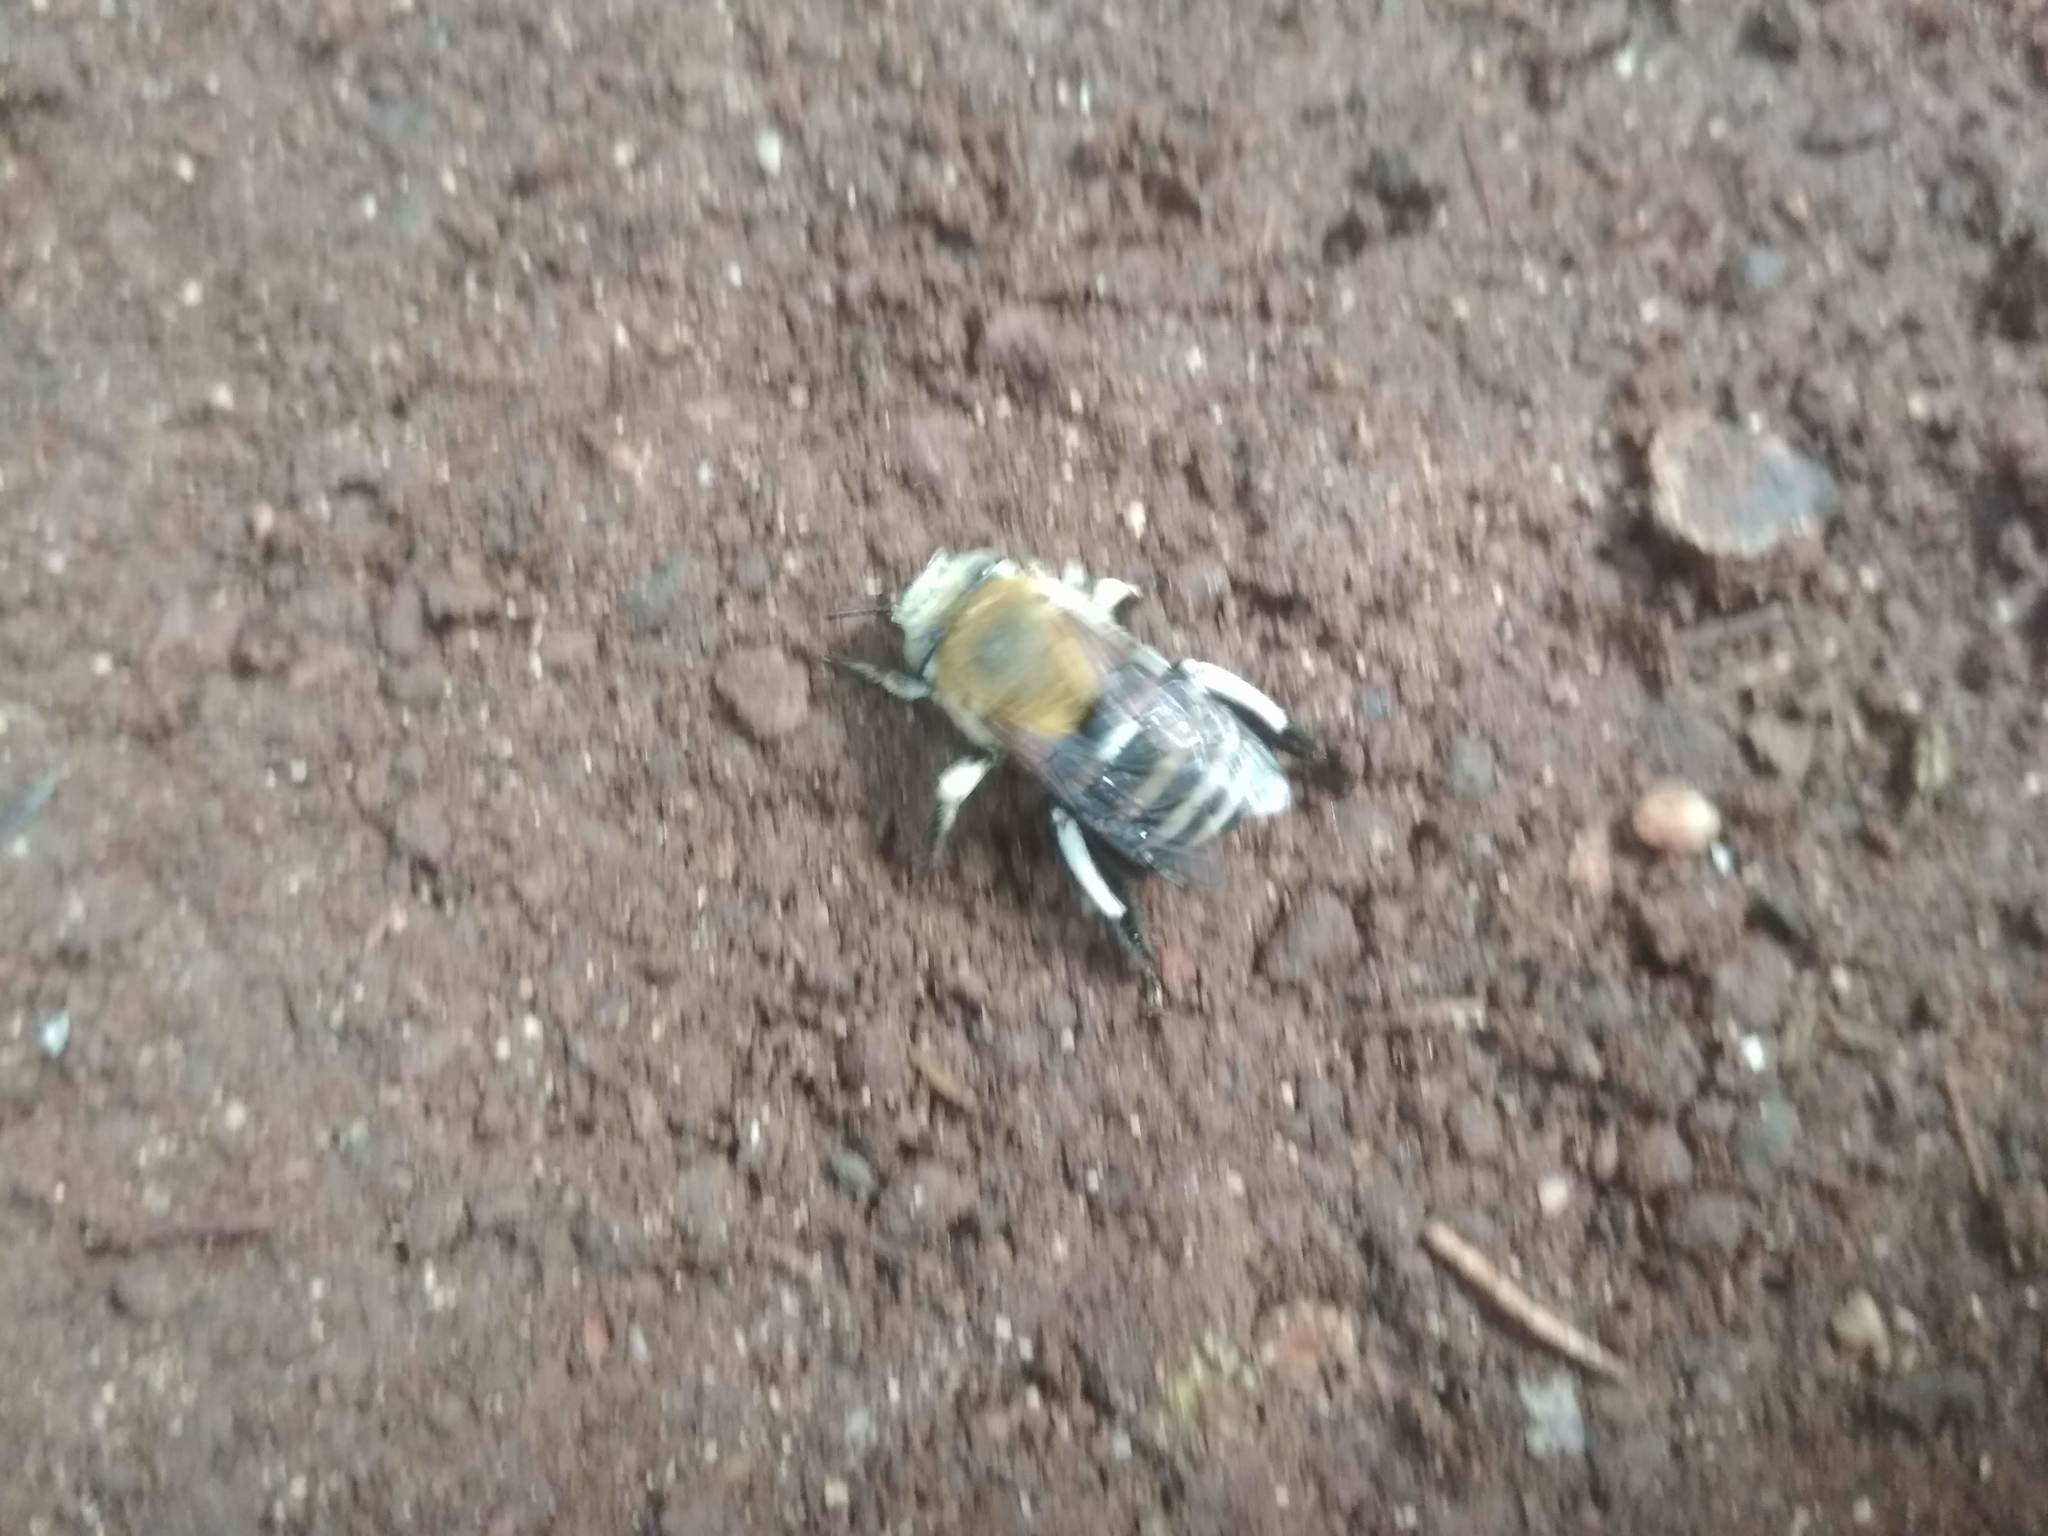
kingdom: Animalia
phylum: Arthropoda
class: Insecta
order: Hymenoptera
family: Apidae
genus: Amegilla
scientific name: Amegilla quadrifasciata
